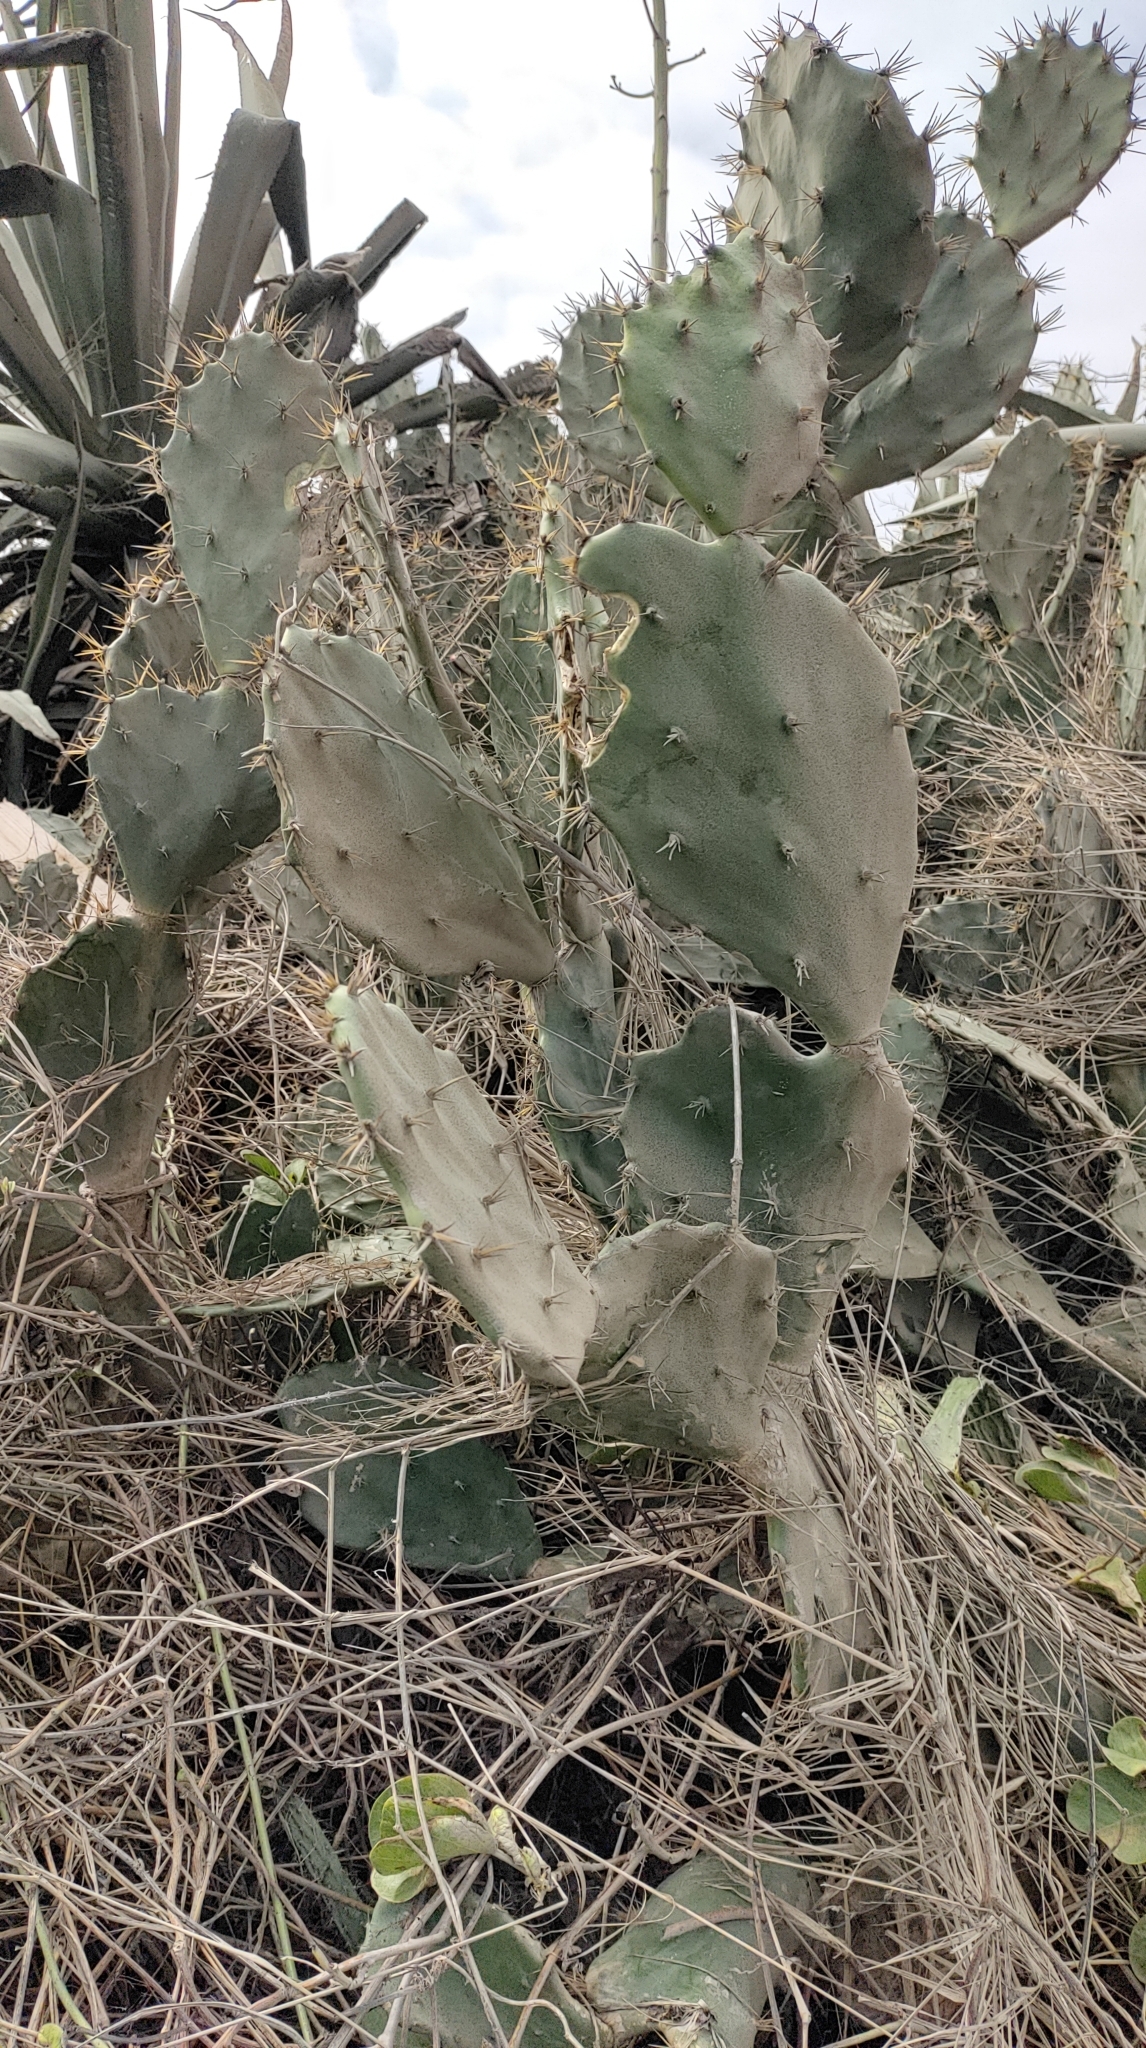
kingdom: Plantae
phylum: Tracheophyta
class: Magnoliopsida
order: Caryophyllales
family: Cactaceae
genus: Opuntia
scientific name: Opuntia dillenii
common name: Sour prickle
